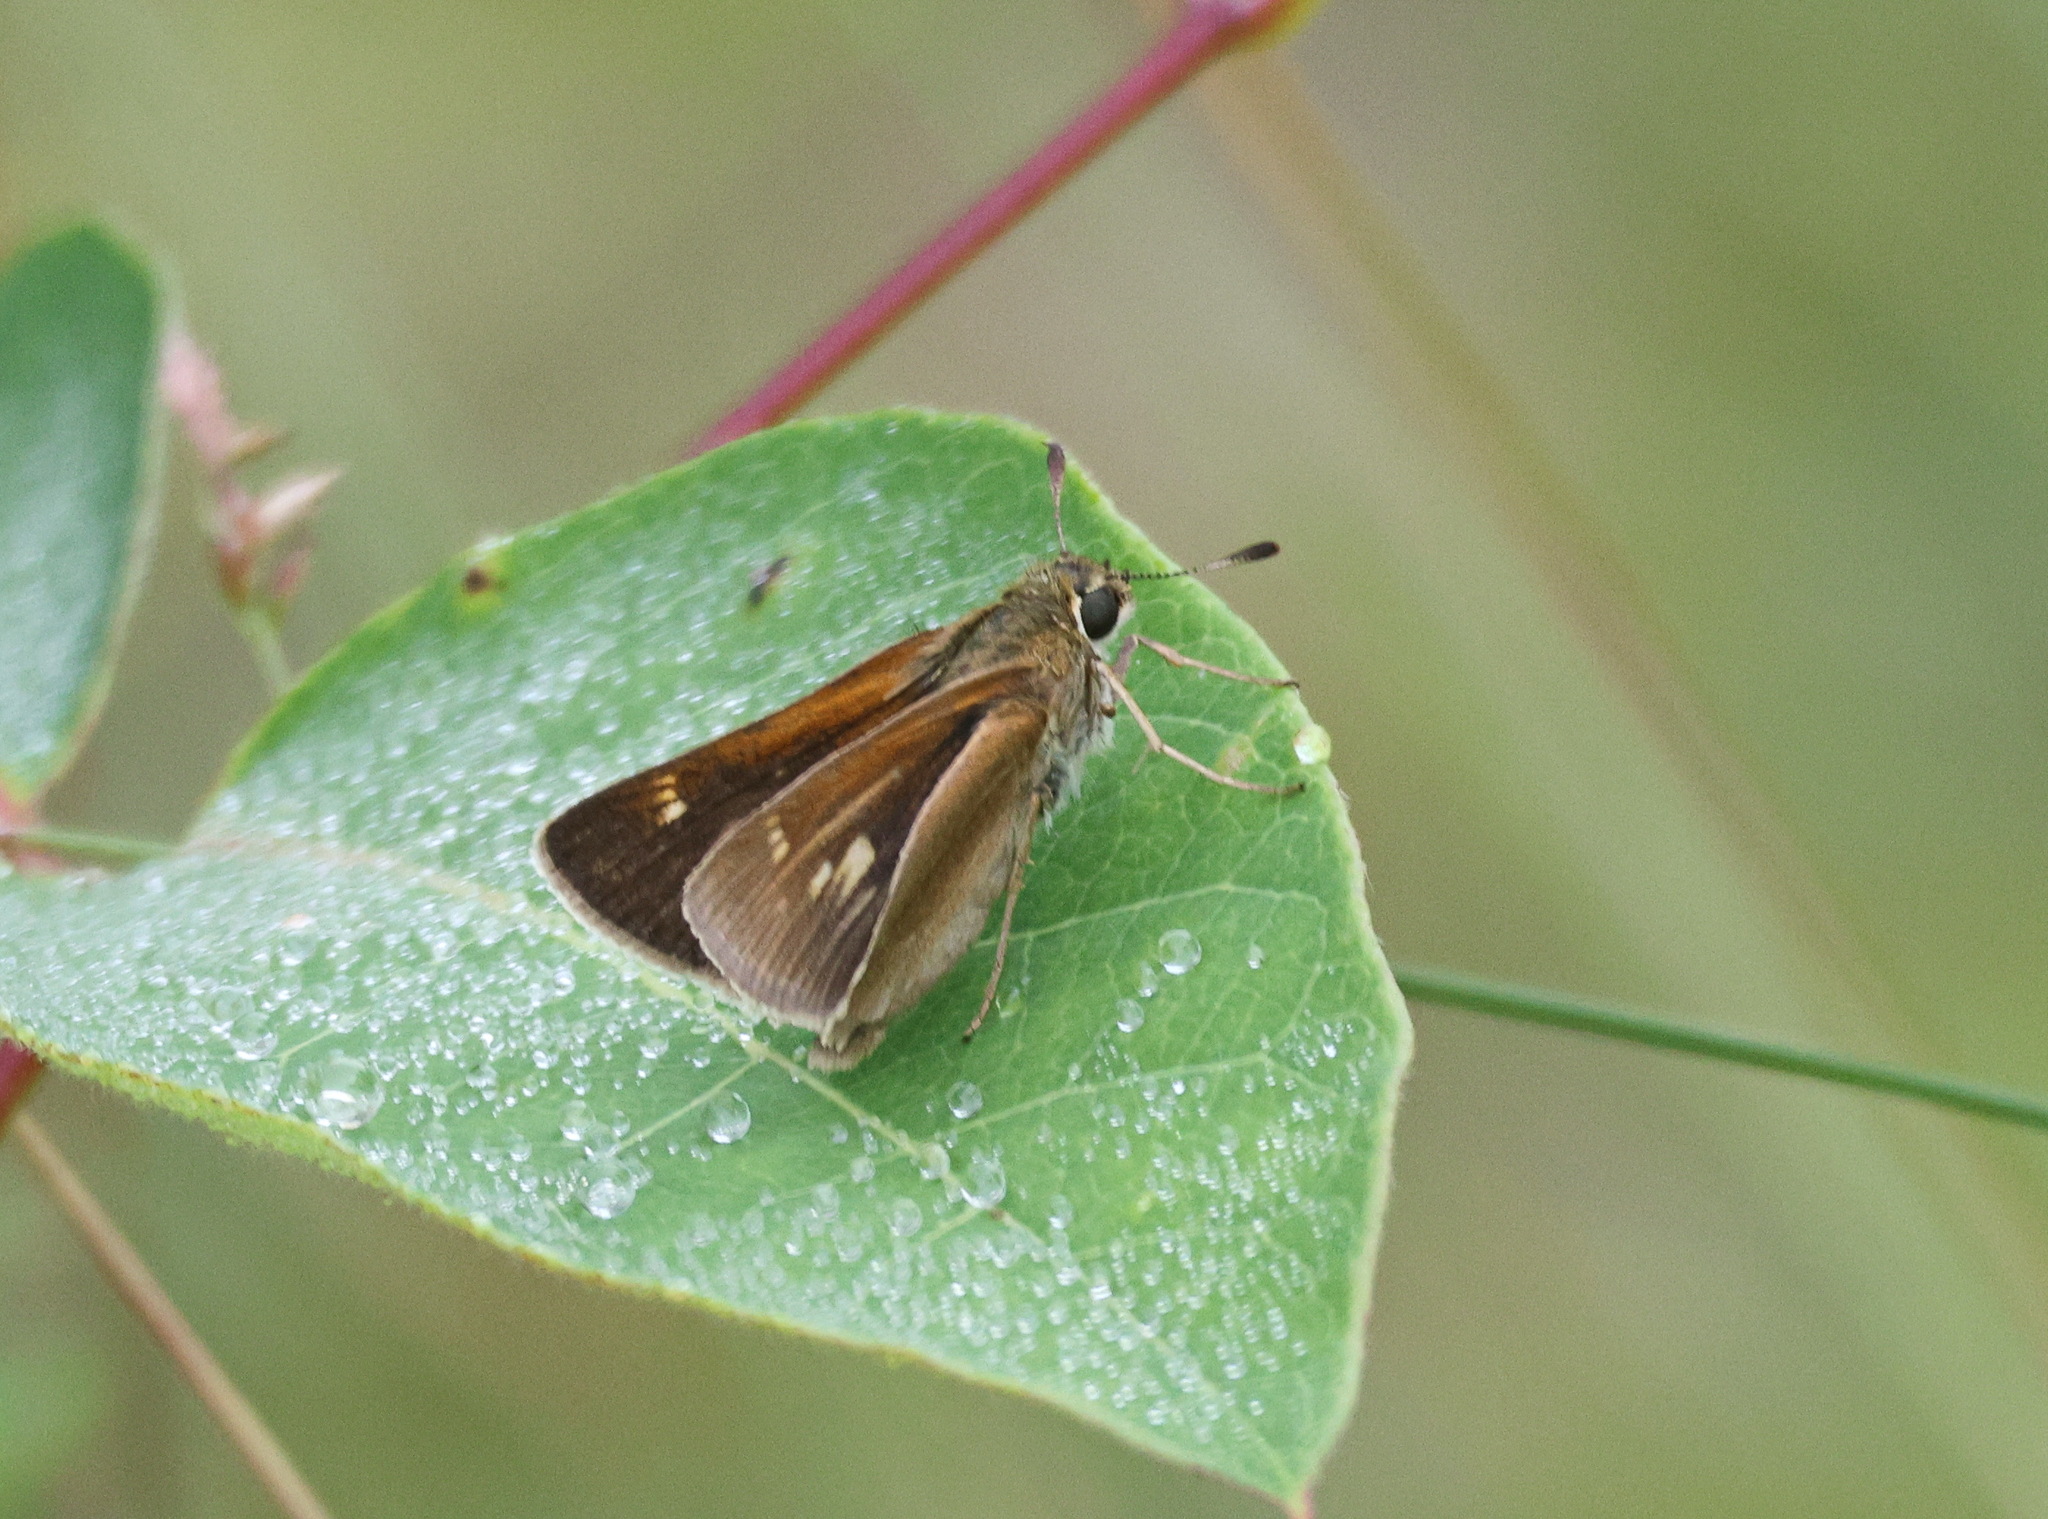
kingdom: Animalia
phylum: Arthropoda
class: Insecta
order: Lepidoptera
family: Hesperiidae
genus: Polites
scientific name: Polites origenes
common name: Crossline skipper
